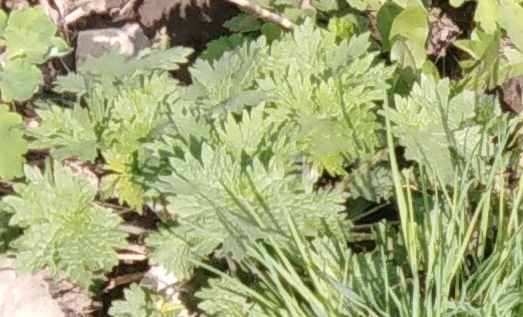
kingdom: Plantae
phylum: Tracheophyta
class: Magnoliopsida
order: Brassicales
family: Brassicaceae
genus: Alliaria
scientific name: Alliaria petiolata
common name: Garlic mustard
